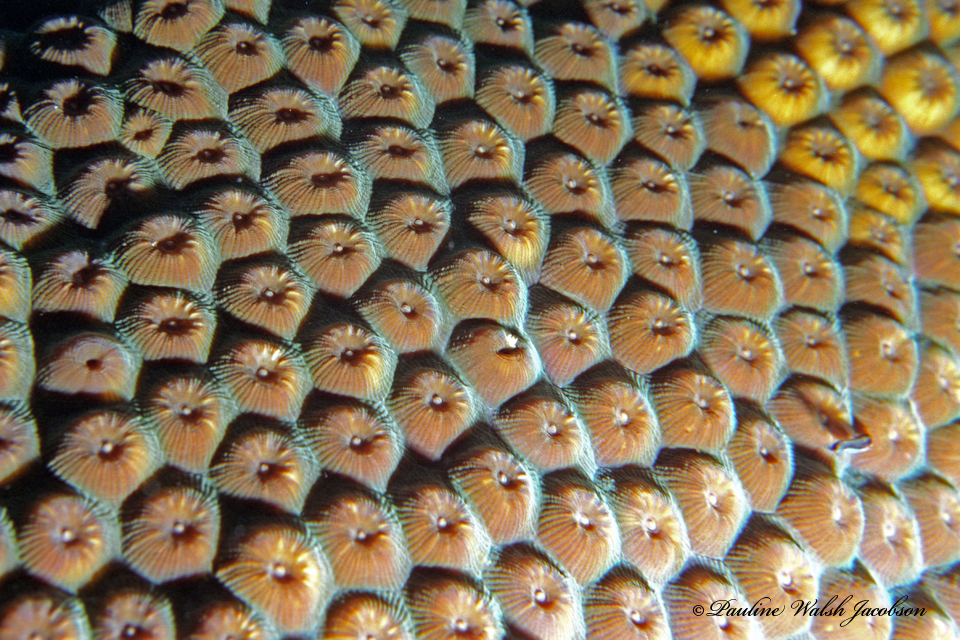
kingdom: Animalia
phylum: Cnidaria
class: Anthozoa
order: Scleractinia
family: Montastraeidae
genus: Montastraea
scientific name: Montastraea cavernosa
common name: Great star coral
